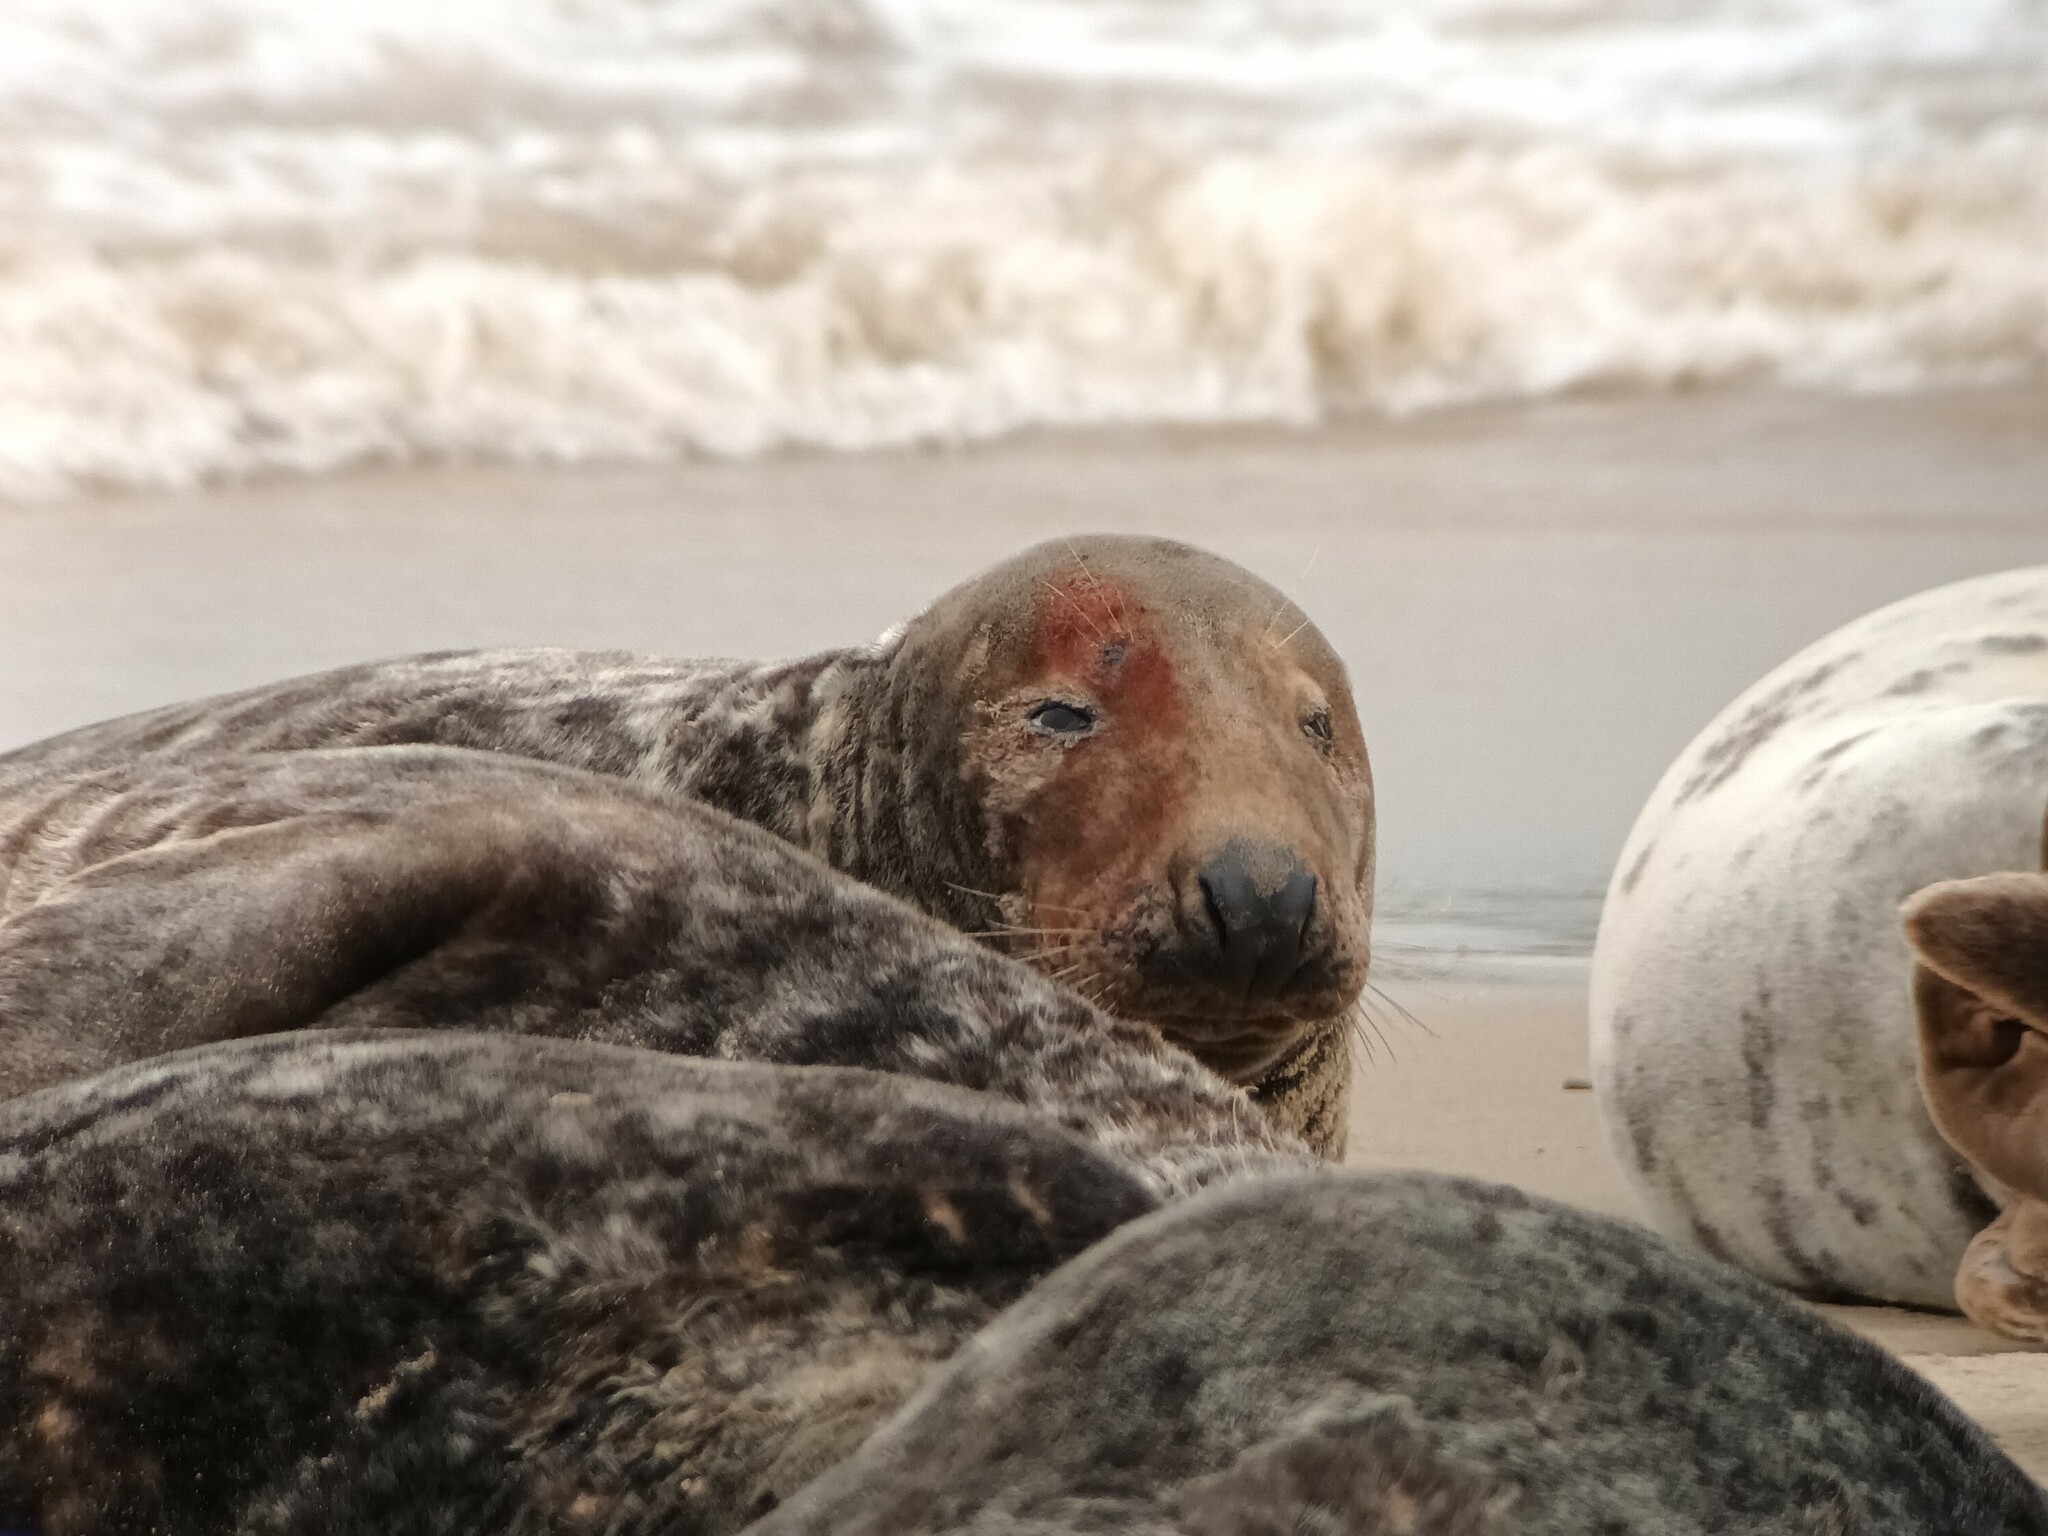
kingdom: Animalia
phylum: Chordata
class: Mammalia
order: Carnivora
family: Phocidae
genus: Halichoerus
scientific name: Halichoerus grypus
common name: Grey seal
